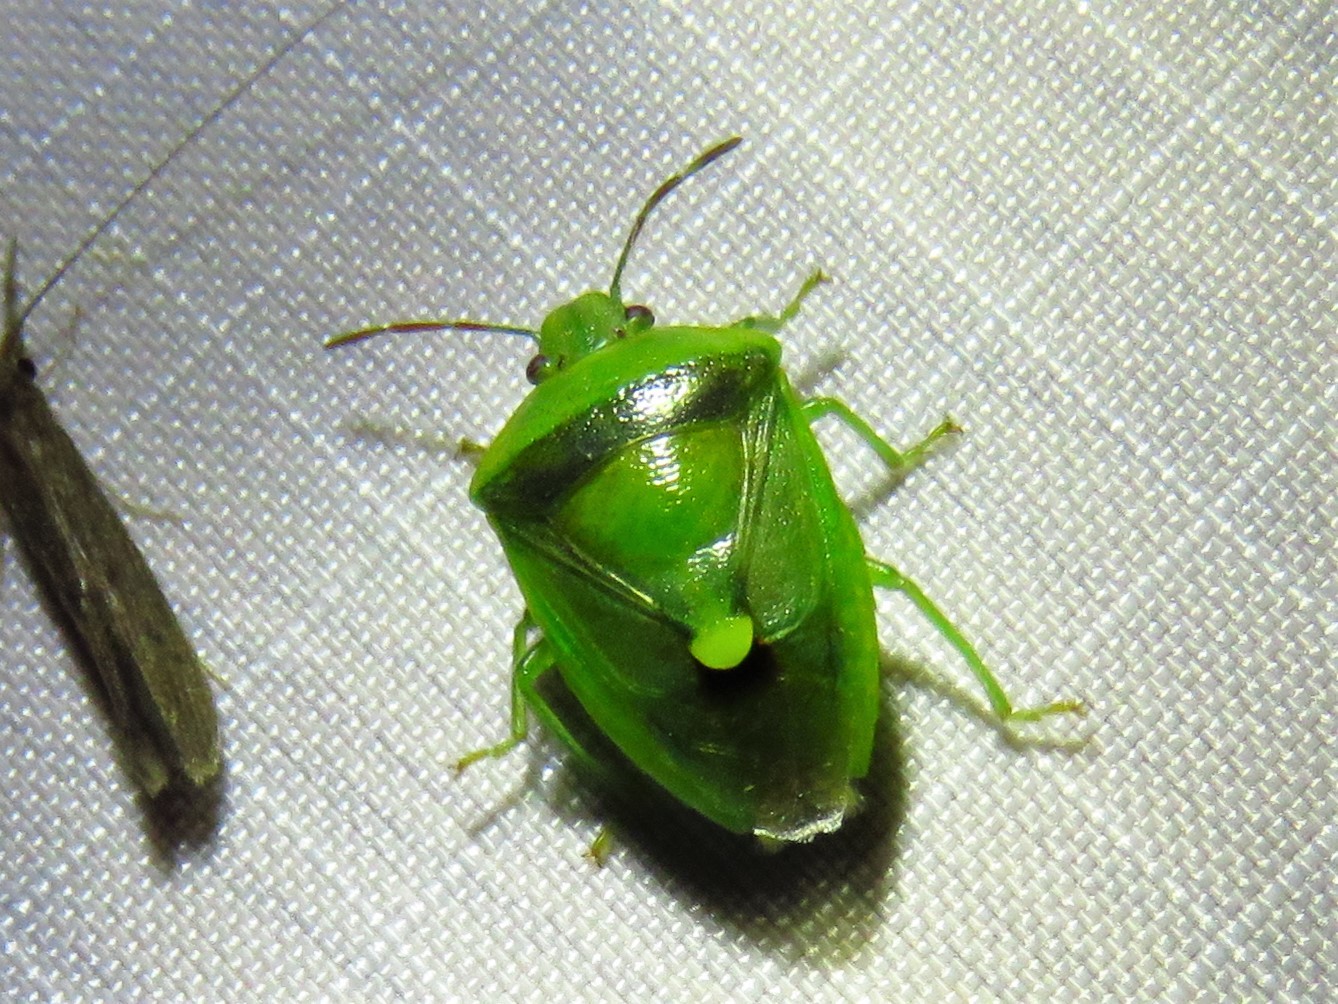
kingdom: Animalia
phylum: Arthropoda
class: Insecta
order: Hemiptera
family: Pentatomidae
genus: Banasa
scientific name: Banasa dimidiata
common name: Green burgundy stink bug
